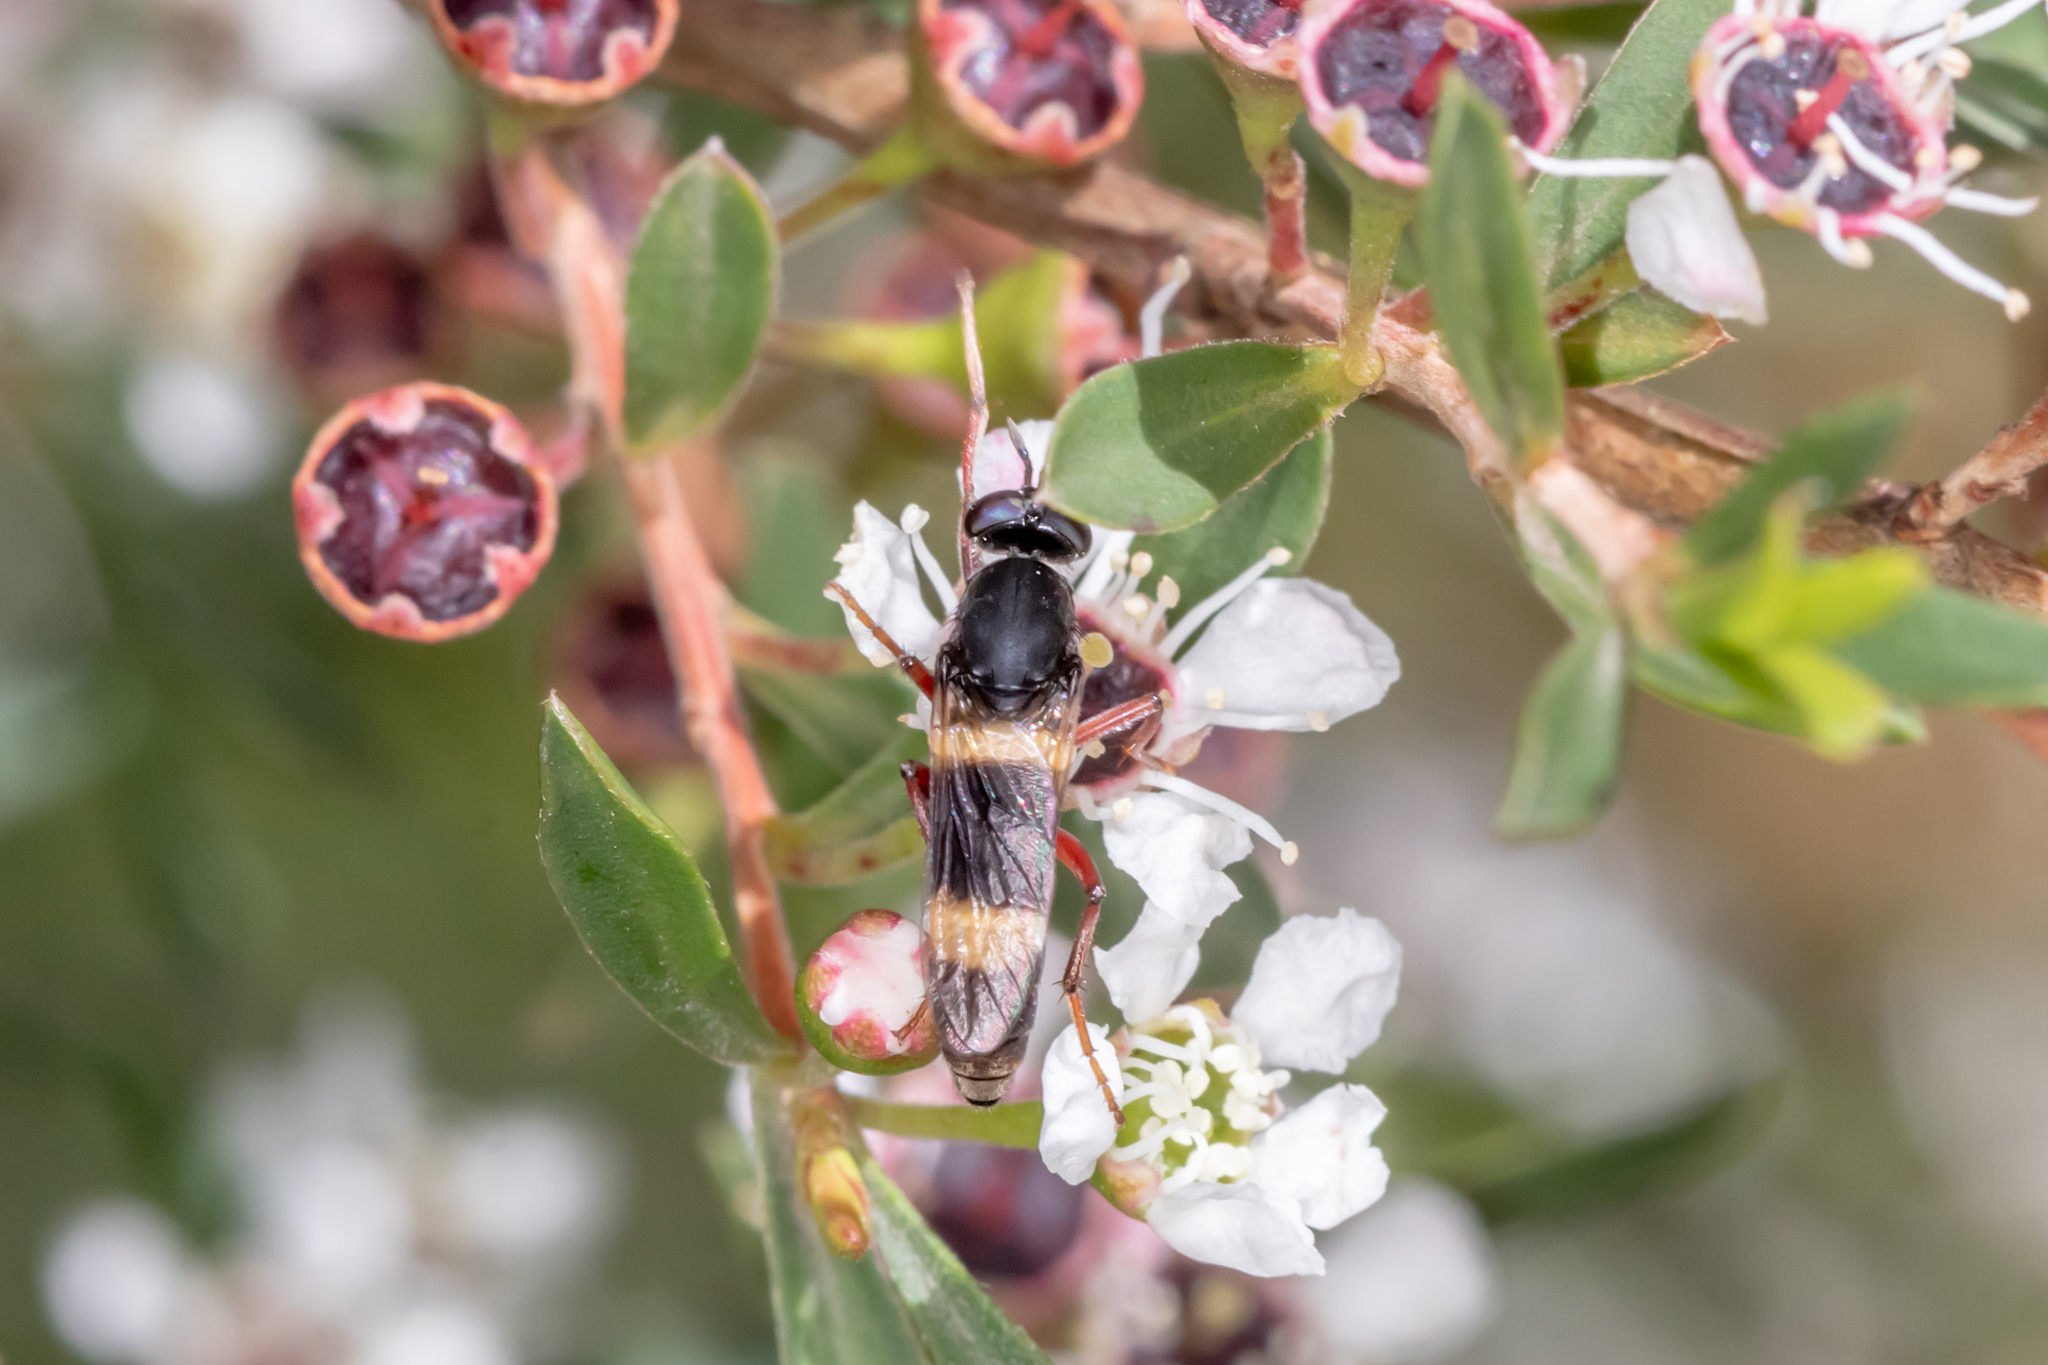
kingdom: Animalia
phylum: Arthropoda
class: Insecta
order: Diptera
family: Therevidae
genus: Pipinnipons
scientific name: Pipinnipons fascipennis
